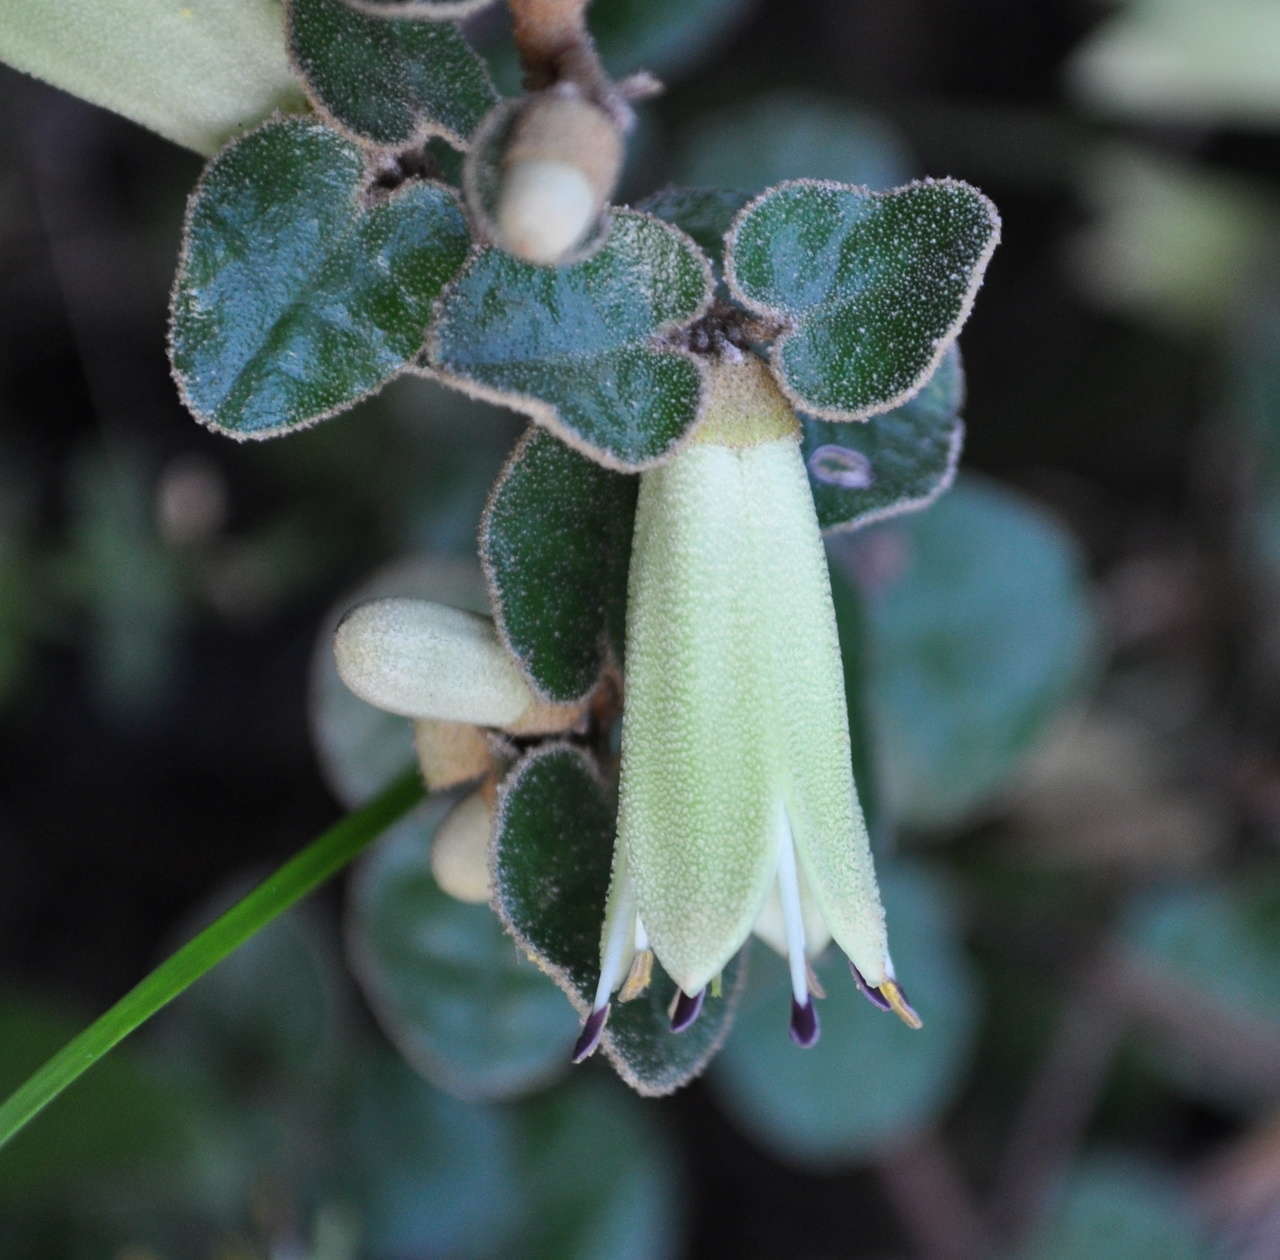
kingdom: Plantae
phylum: Tracheophyta
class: Magnoliopsida
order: Sapindales
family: Rutaceae
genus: Correa
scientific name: Correa reflexa
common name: Common correa
